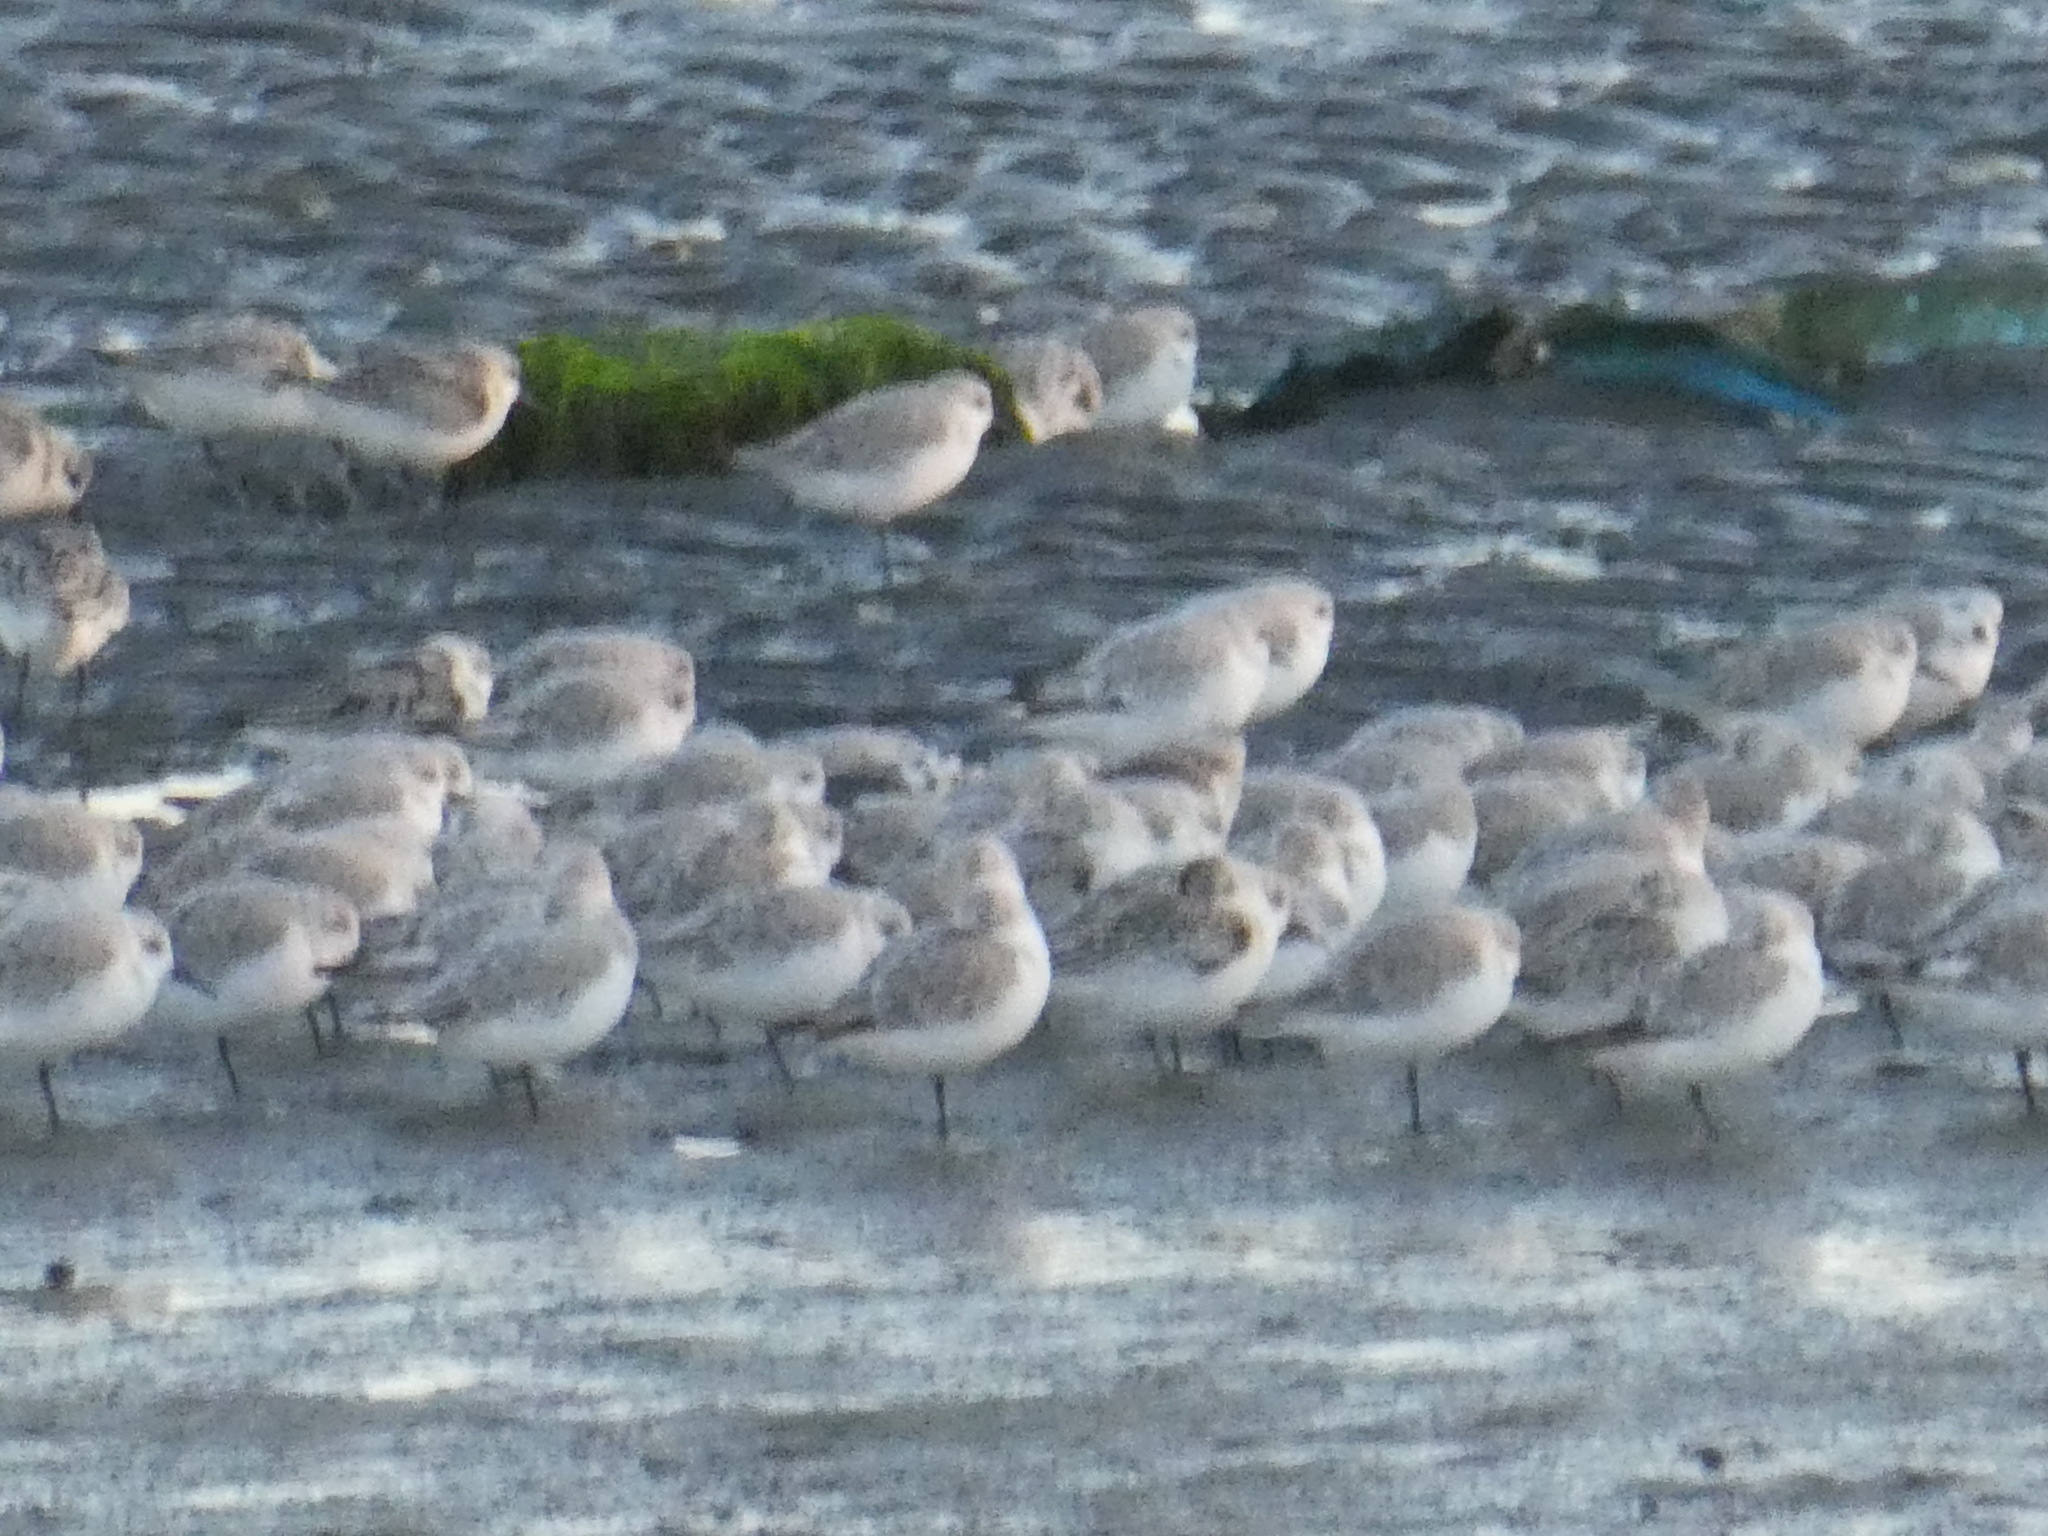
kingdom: Animalia
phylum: Chordata
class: Aves
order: Charadriiformes
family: Scolopacidae
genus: Calidris
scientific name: Calidris alba
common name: Sanderling
